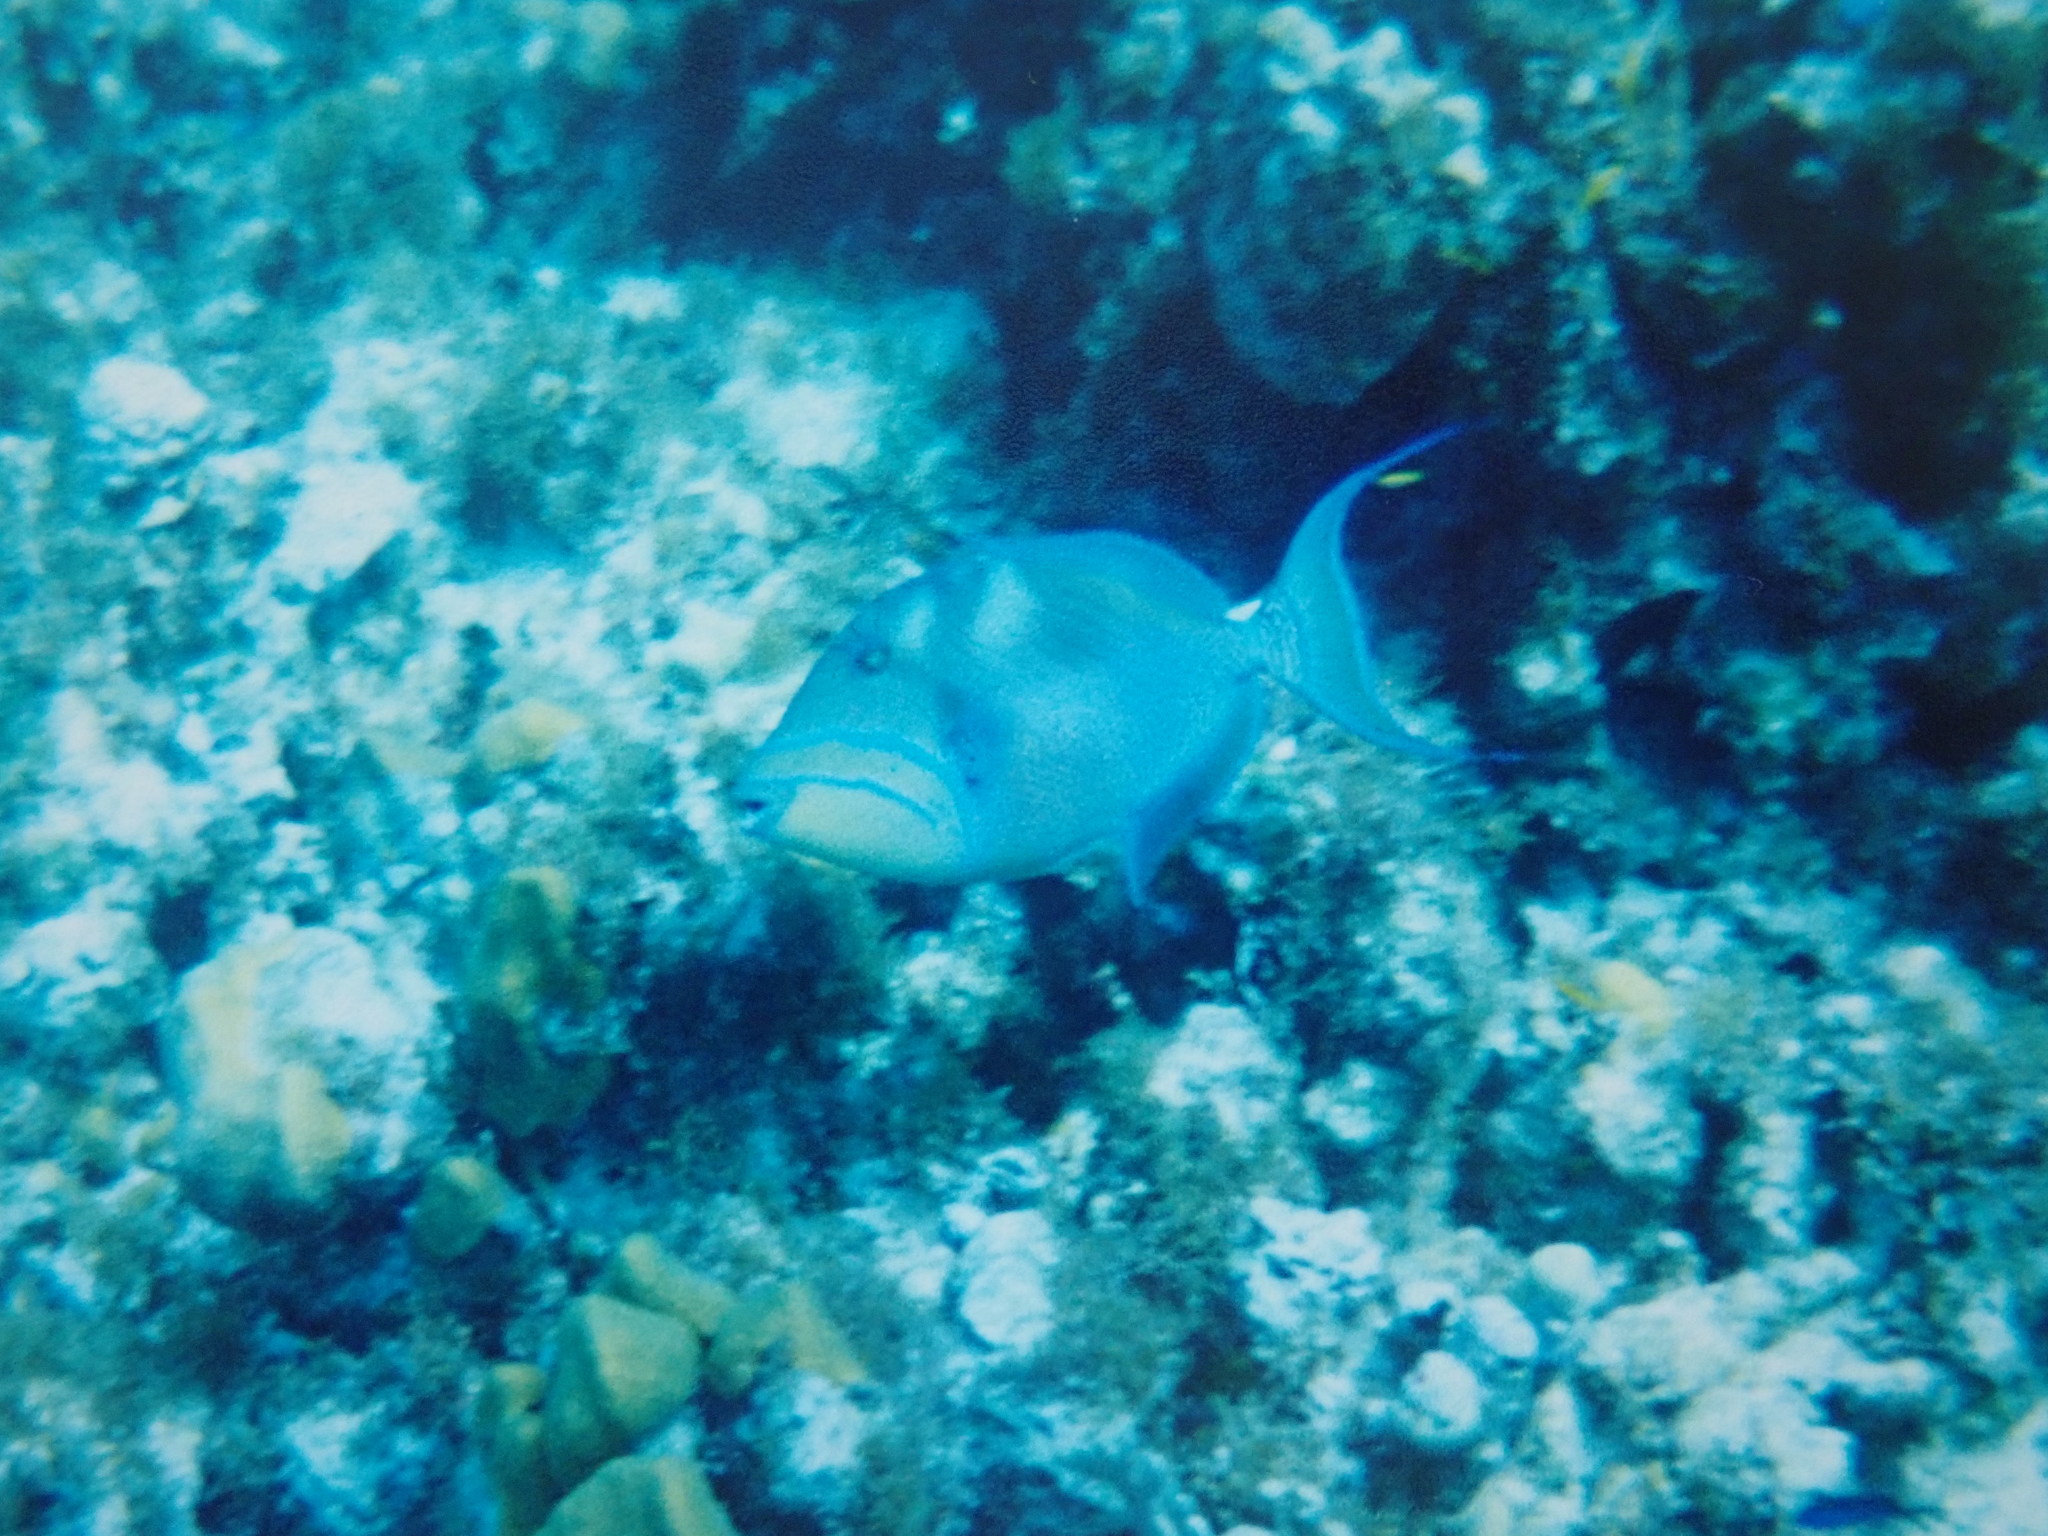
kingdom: Animalia
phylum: Chordata
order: Tetraodontiformes
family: Balistidae
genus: Balistes
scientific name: Balistes vetula
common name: Queen triggerfish
